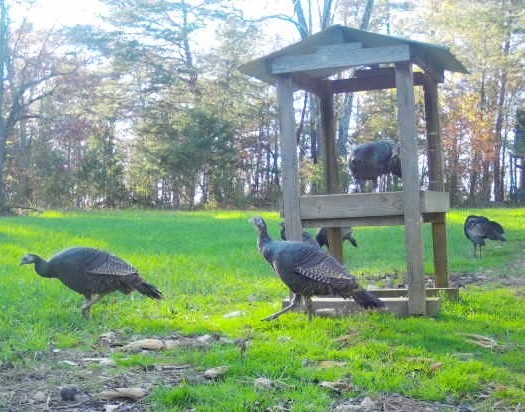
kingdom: Animalia
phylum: Chordata
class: Aves
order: Galliformes
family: Phasianidae
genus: Meleagris
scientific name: Meleagris gallopavo
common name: Wild turkey
